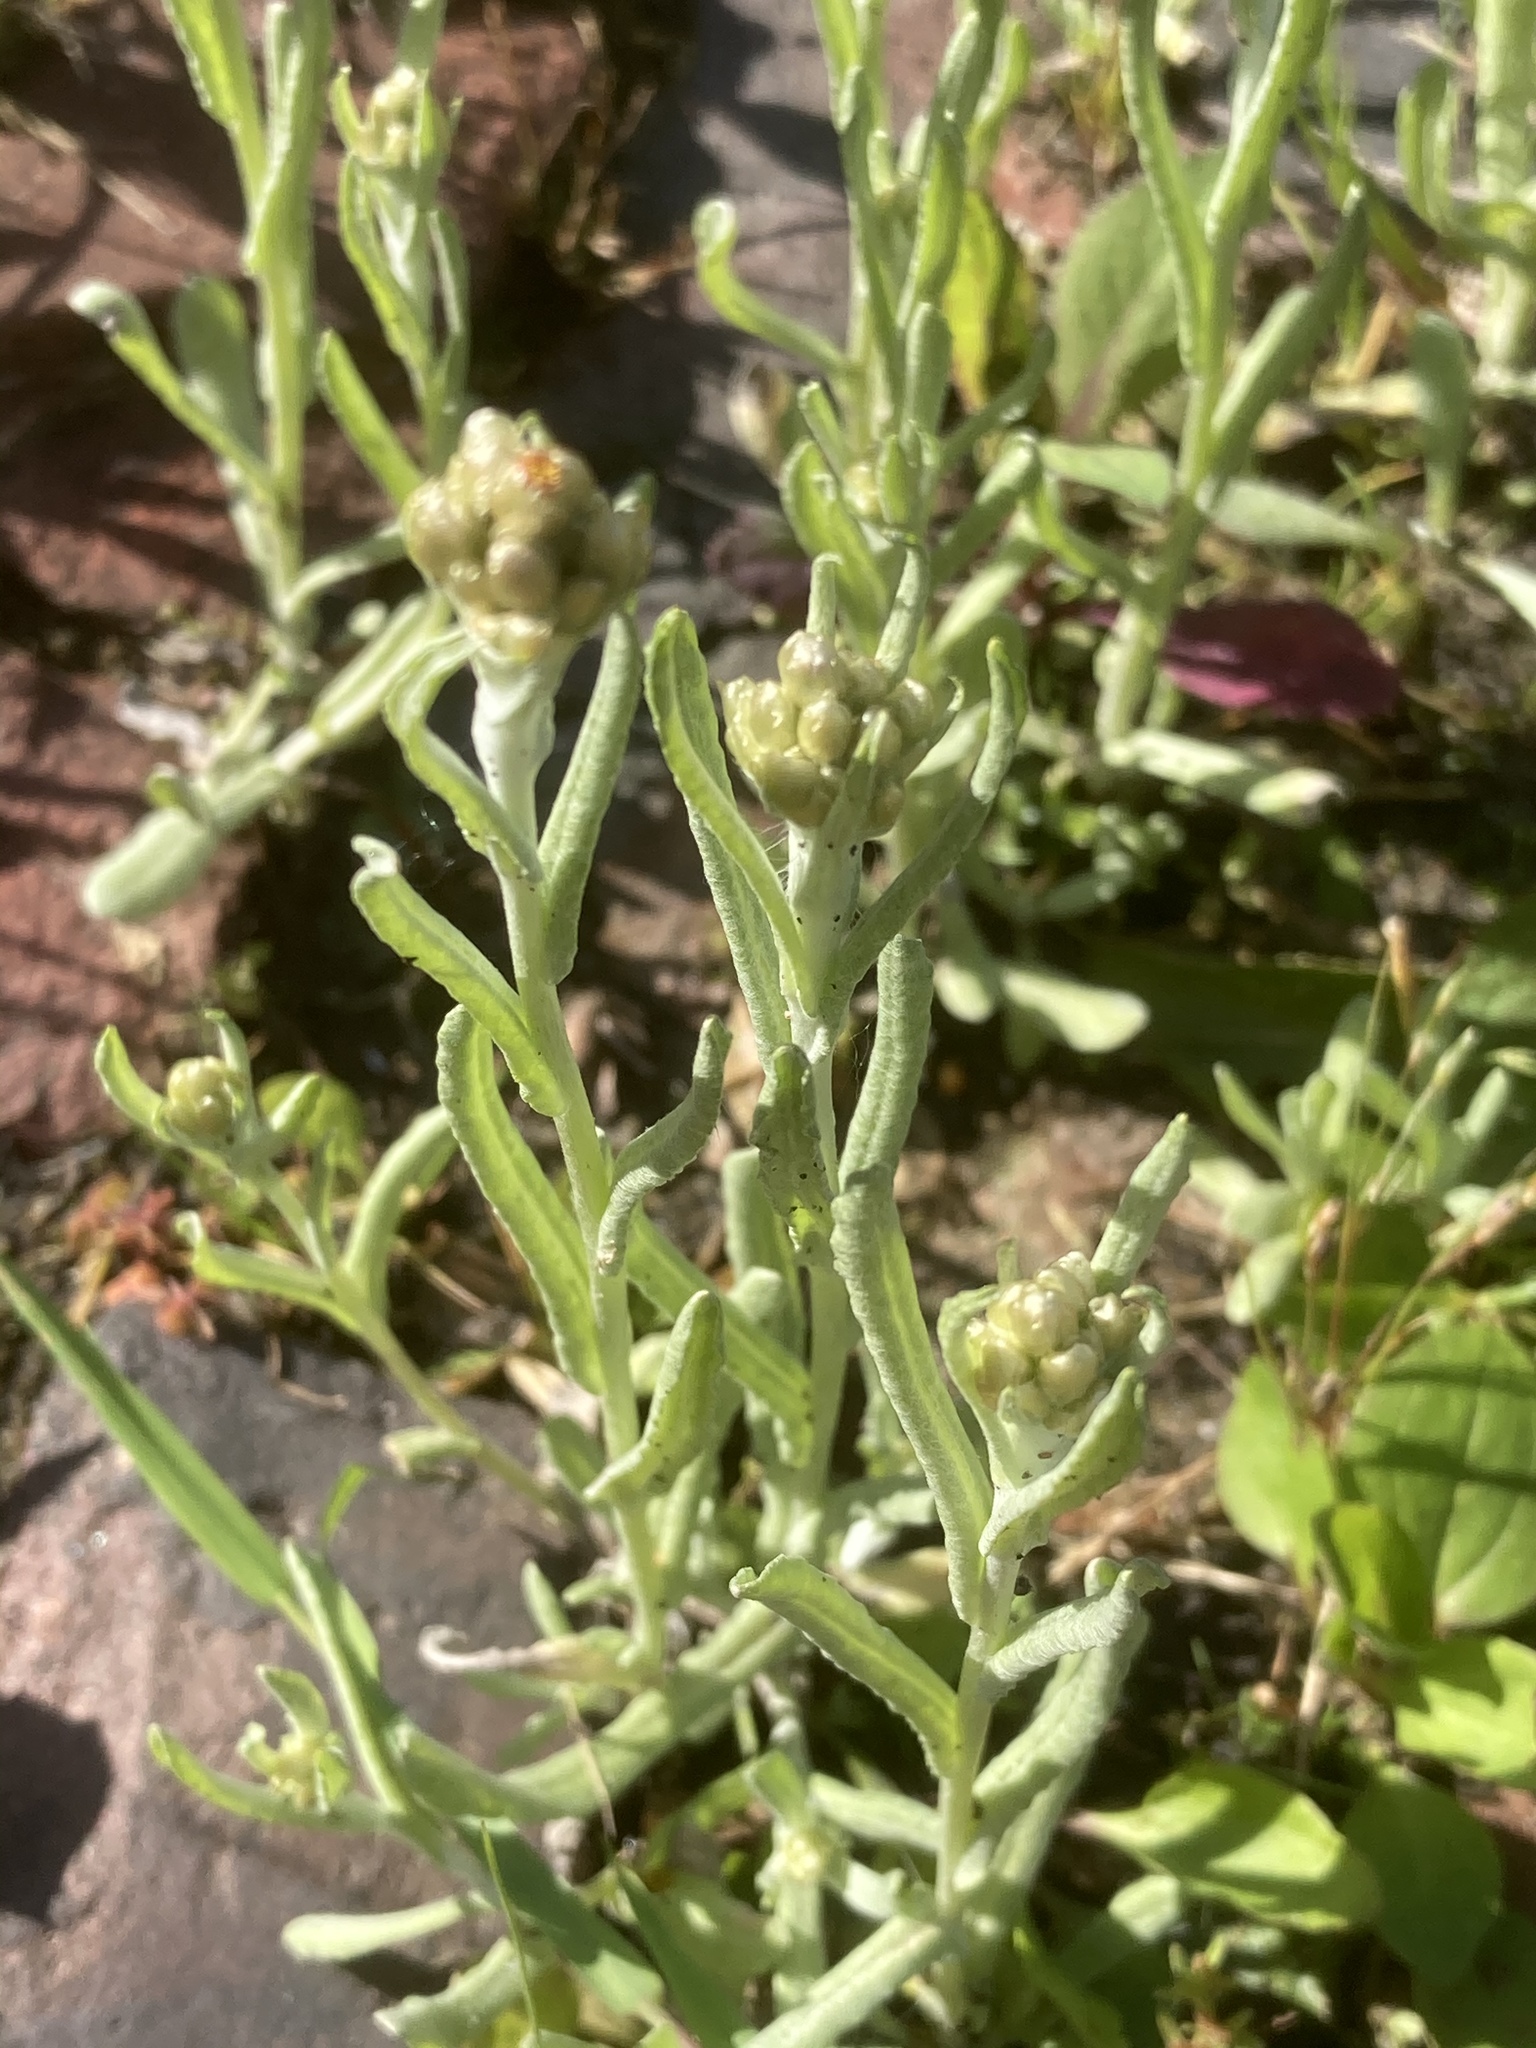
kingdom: Plantae
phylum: Tracheophyta
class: Magnoliopsida
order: Asterales
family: Asteraceae
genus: Helichrysum
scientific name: Helichrysum luteoalbum
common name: Daisy
